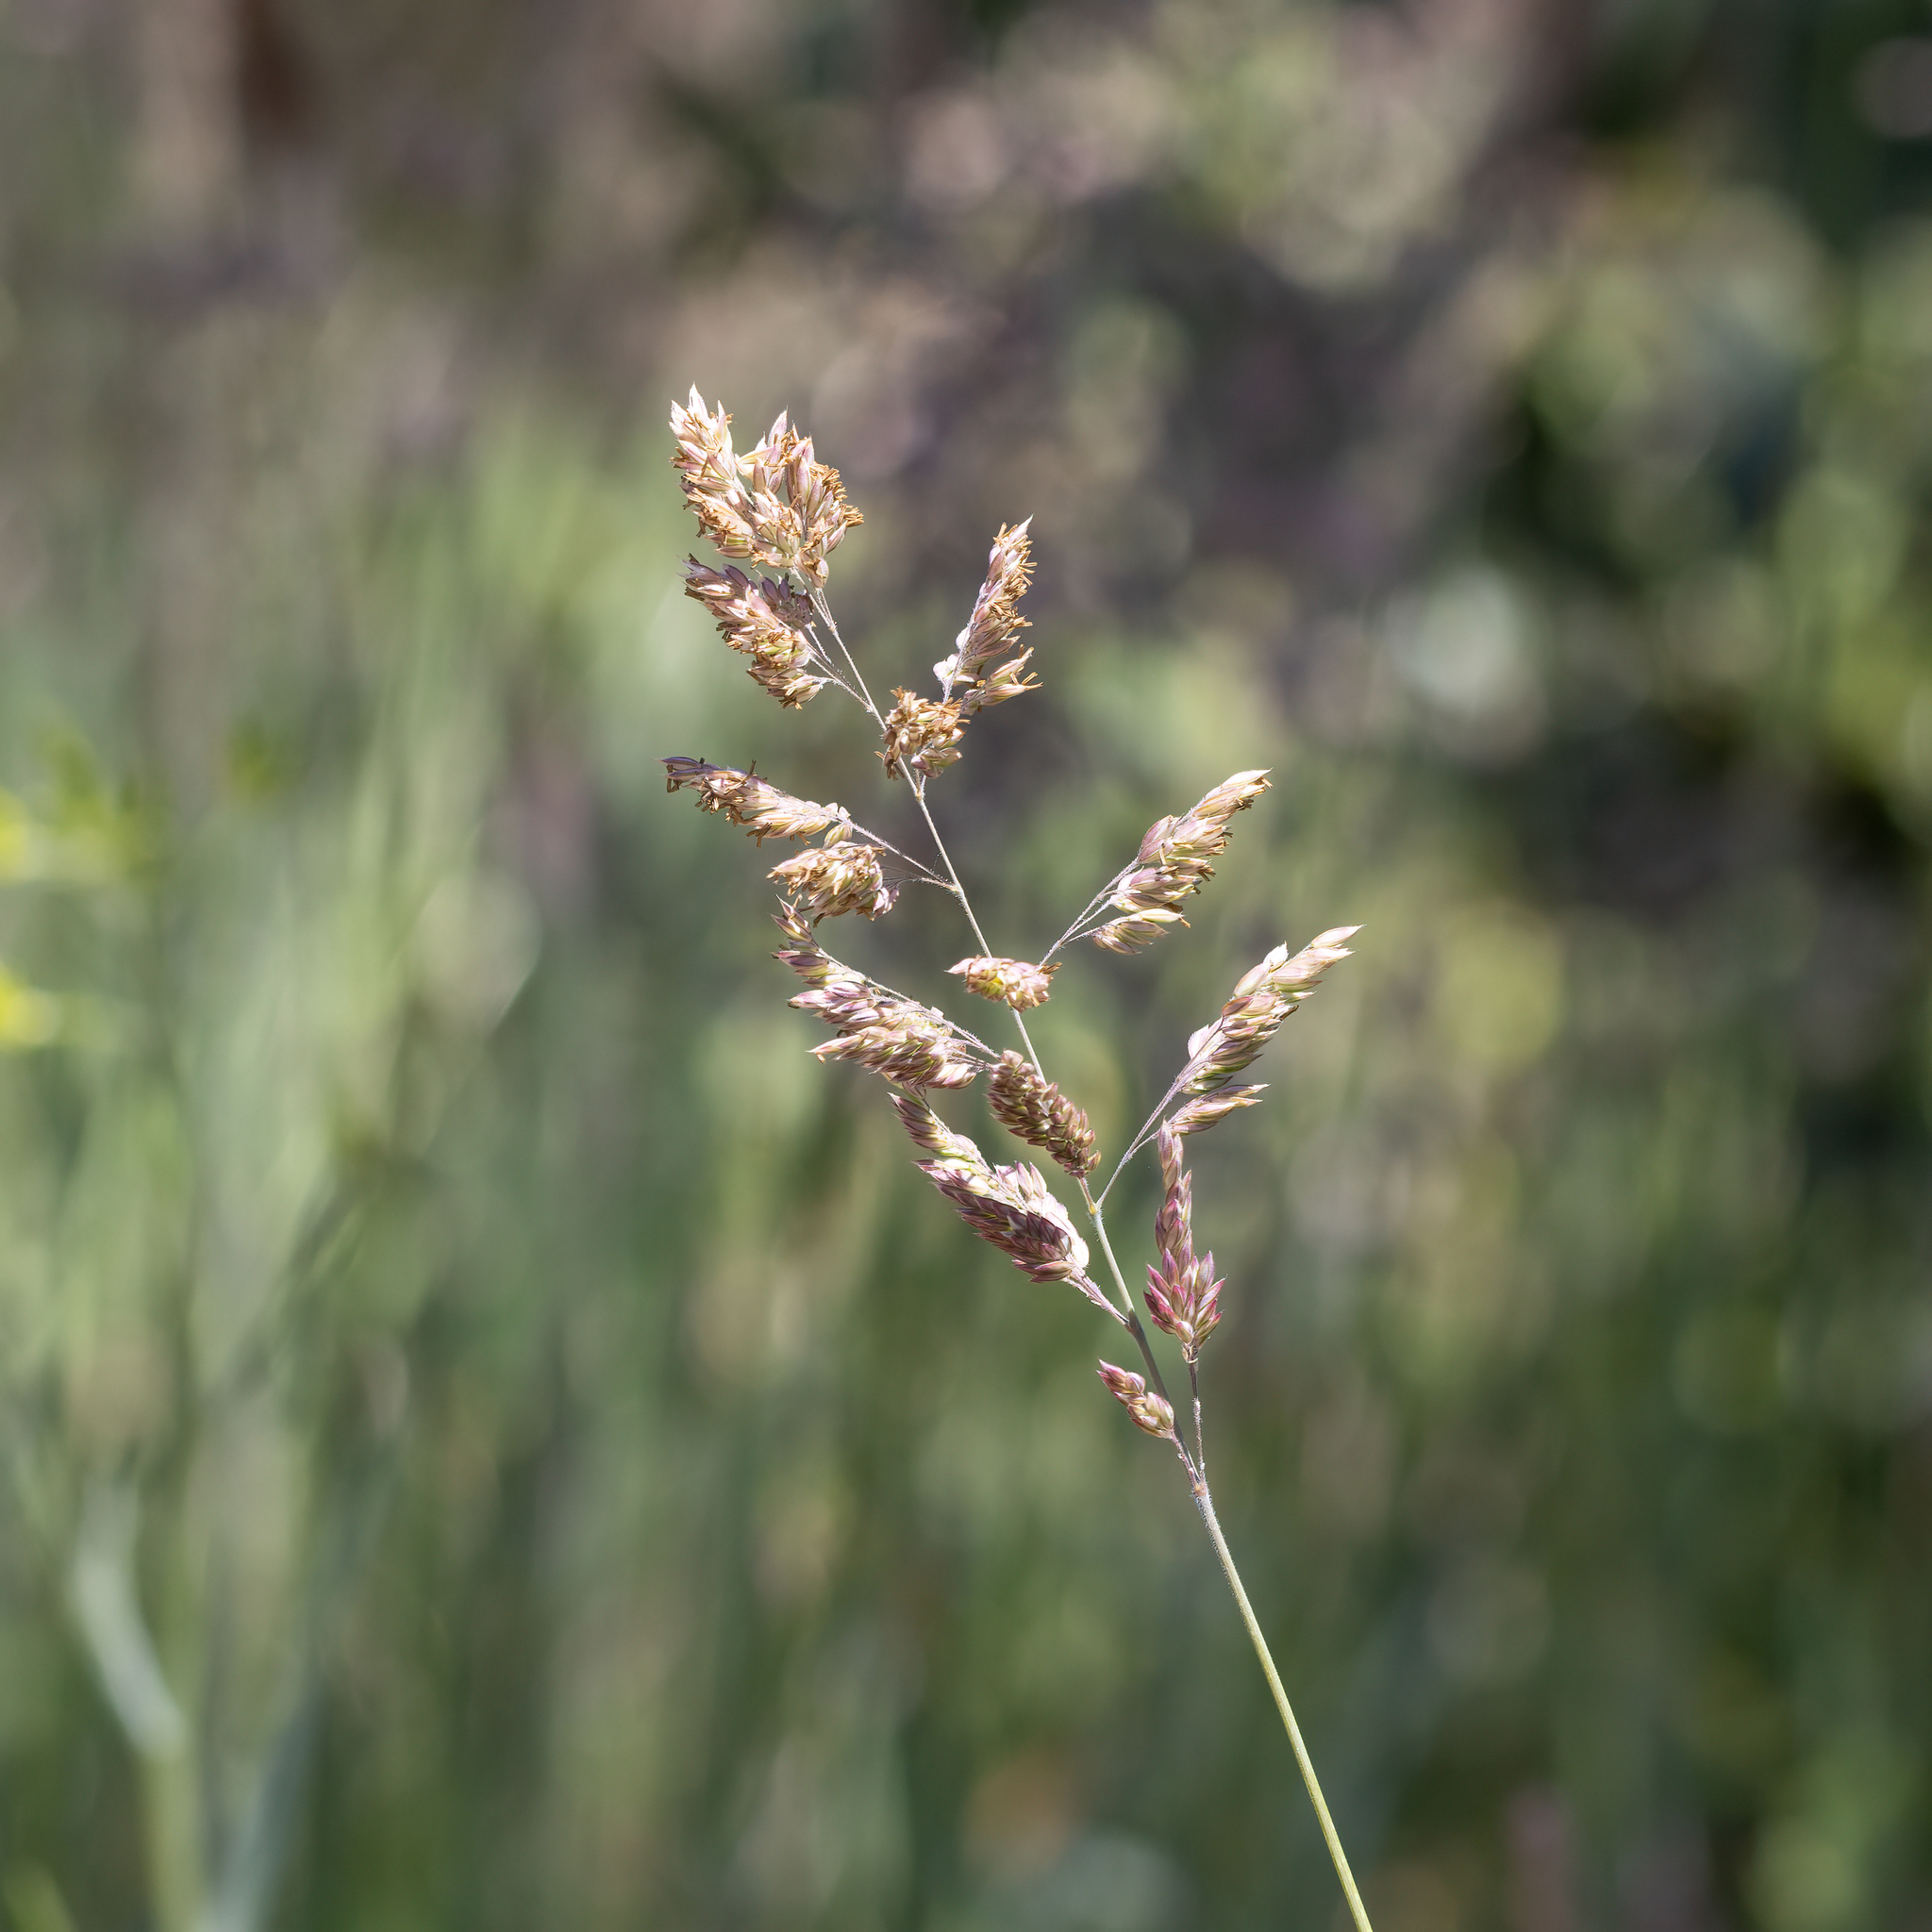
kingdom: Plantae
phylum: Tracheophyta
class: Liliopsida
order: Poales
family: Poaceae
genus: Holcus
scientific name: Holcus lanatus
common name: Yorkshire-fog
